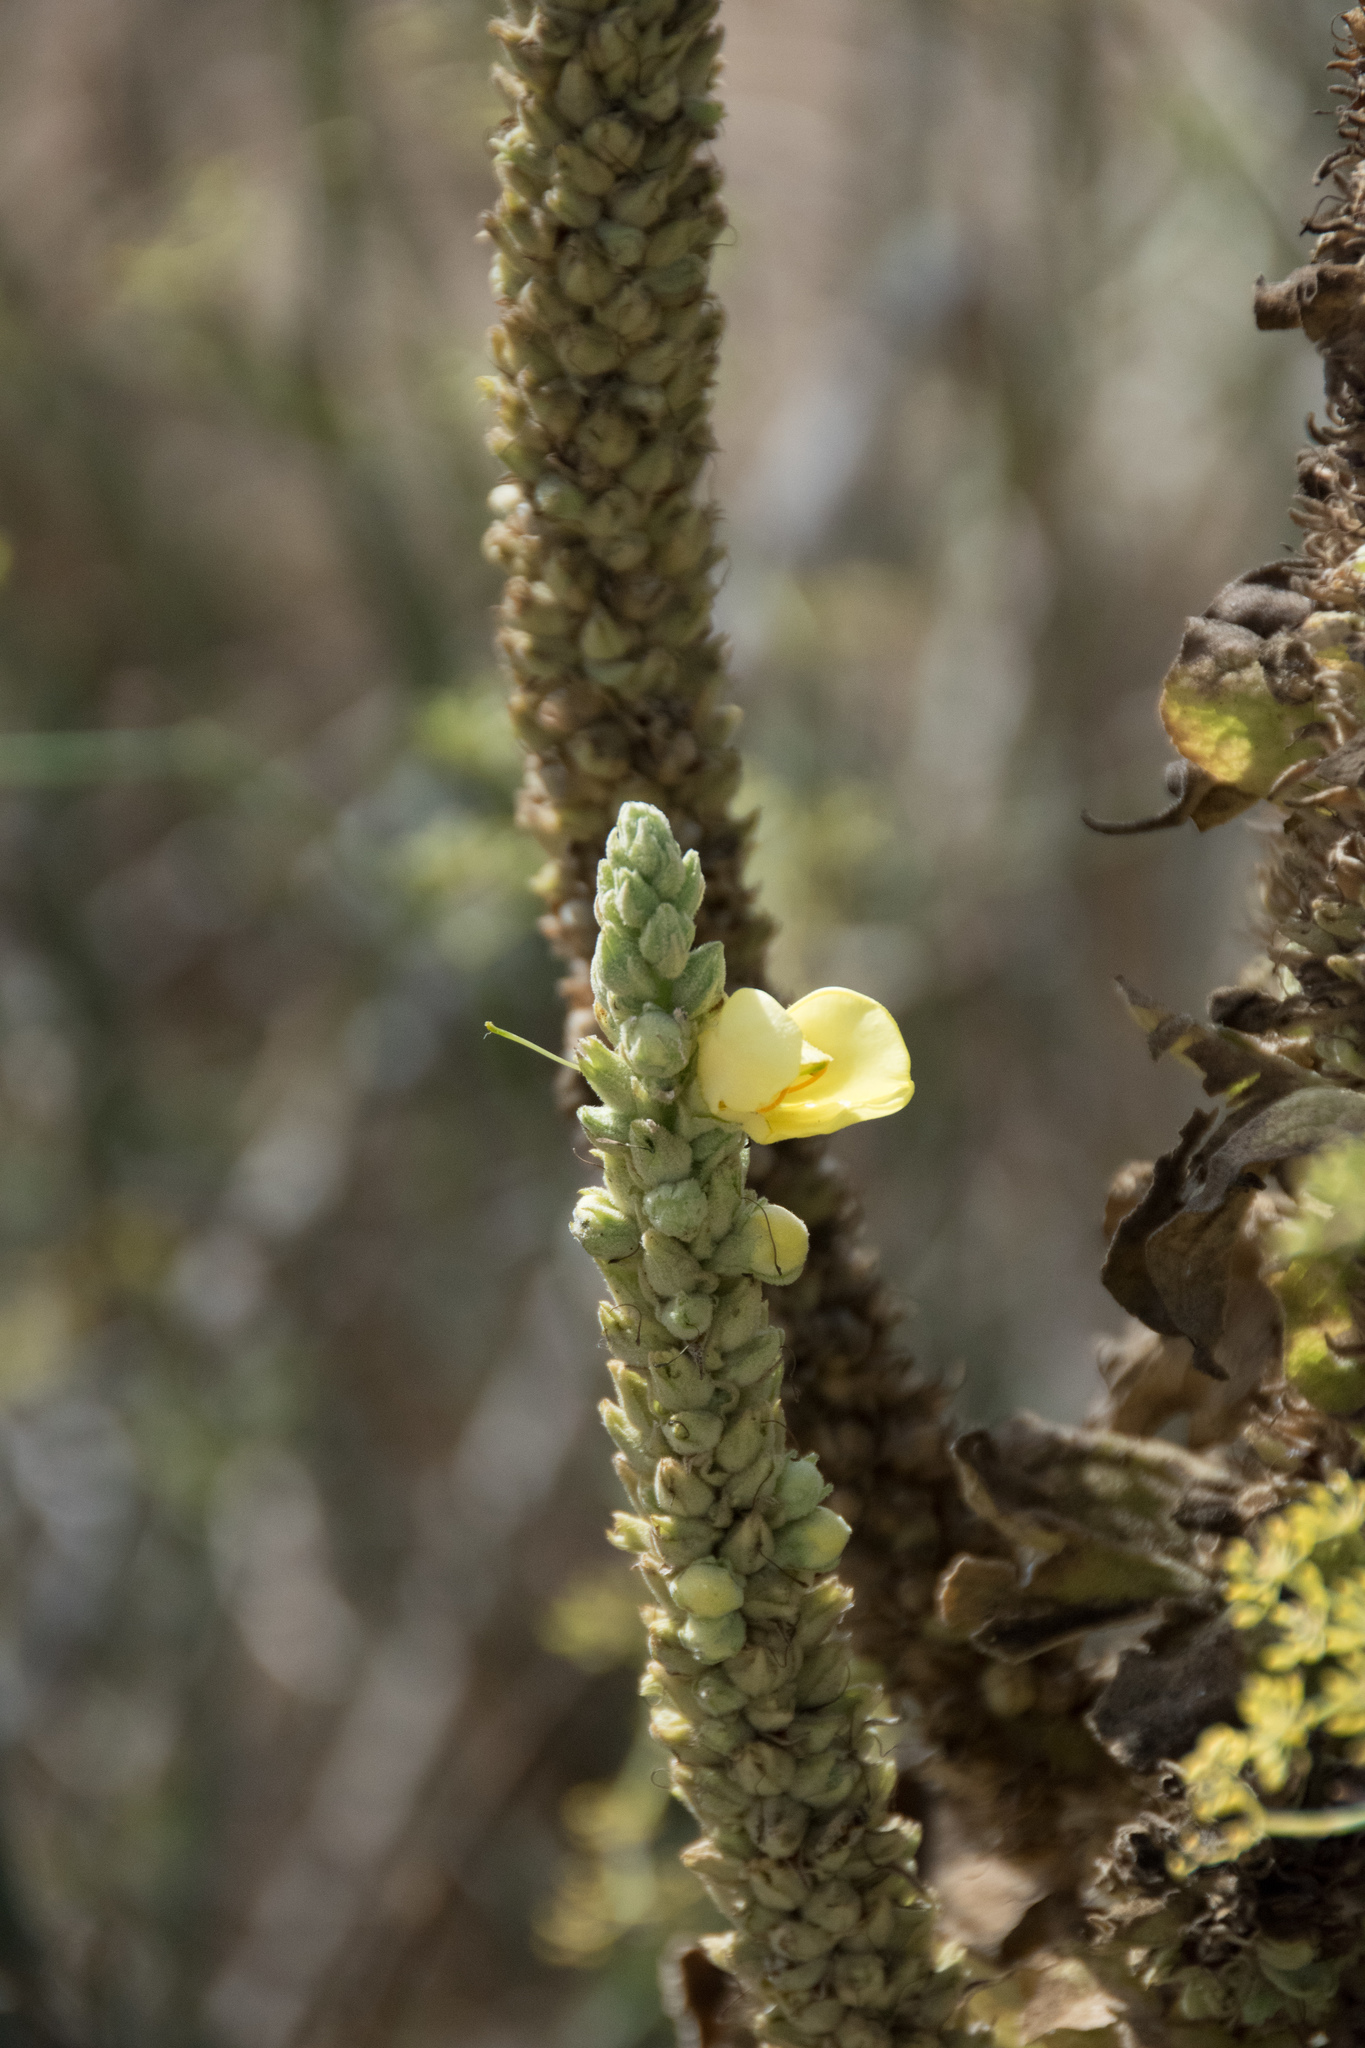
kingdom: Plantae
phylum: Tracheophyta
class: Magnoliopsida
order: Lamiales
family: Scrophulariaceae
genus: Verbascum
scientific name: Verbascum macrurum
